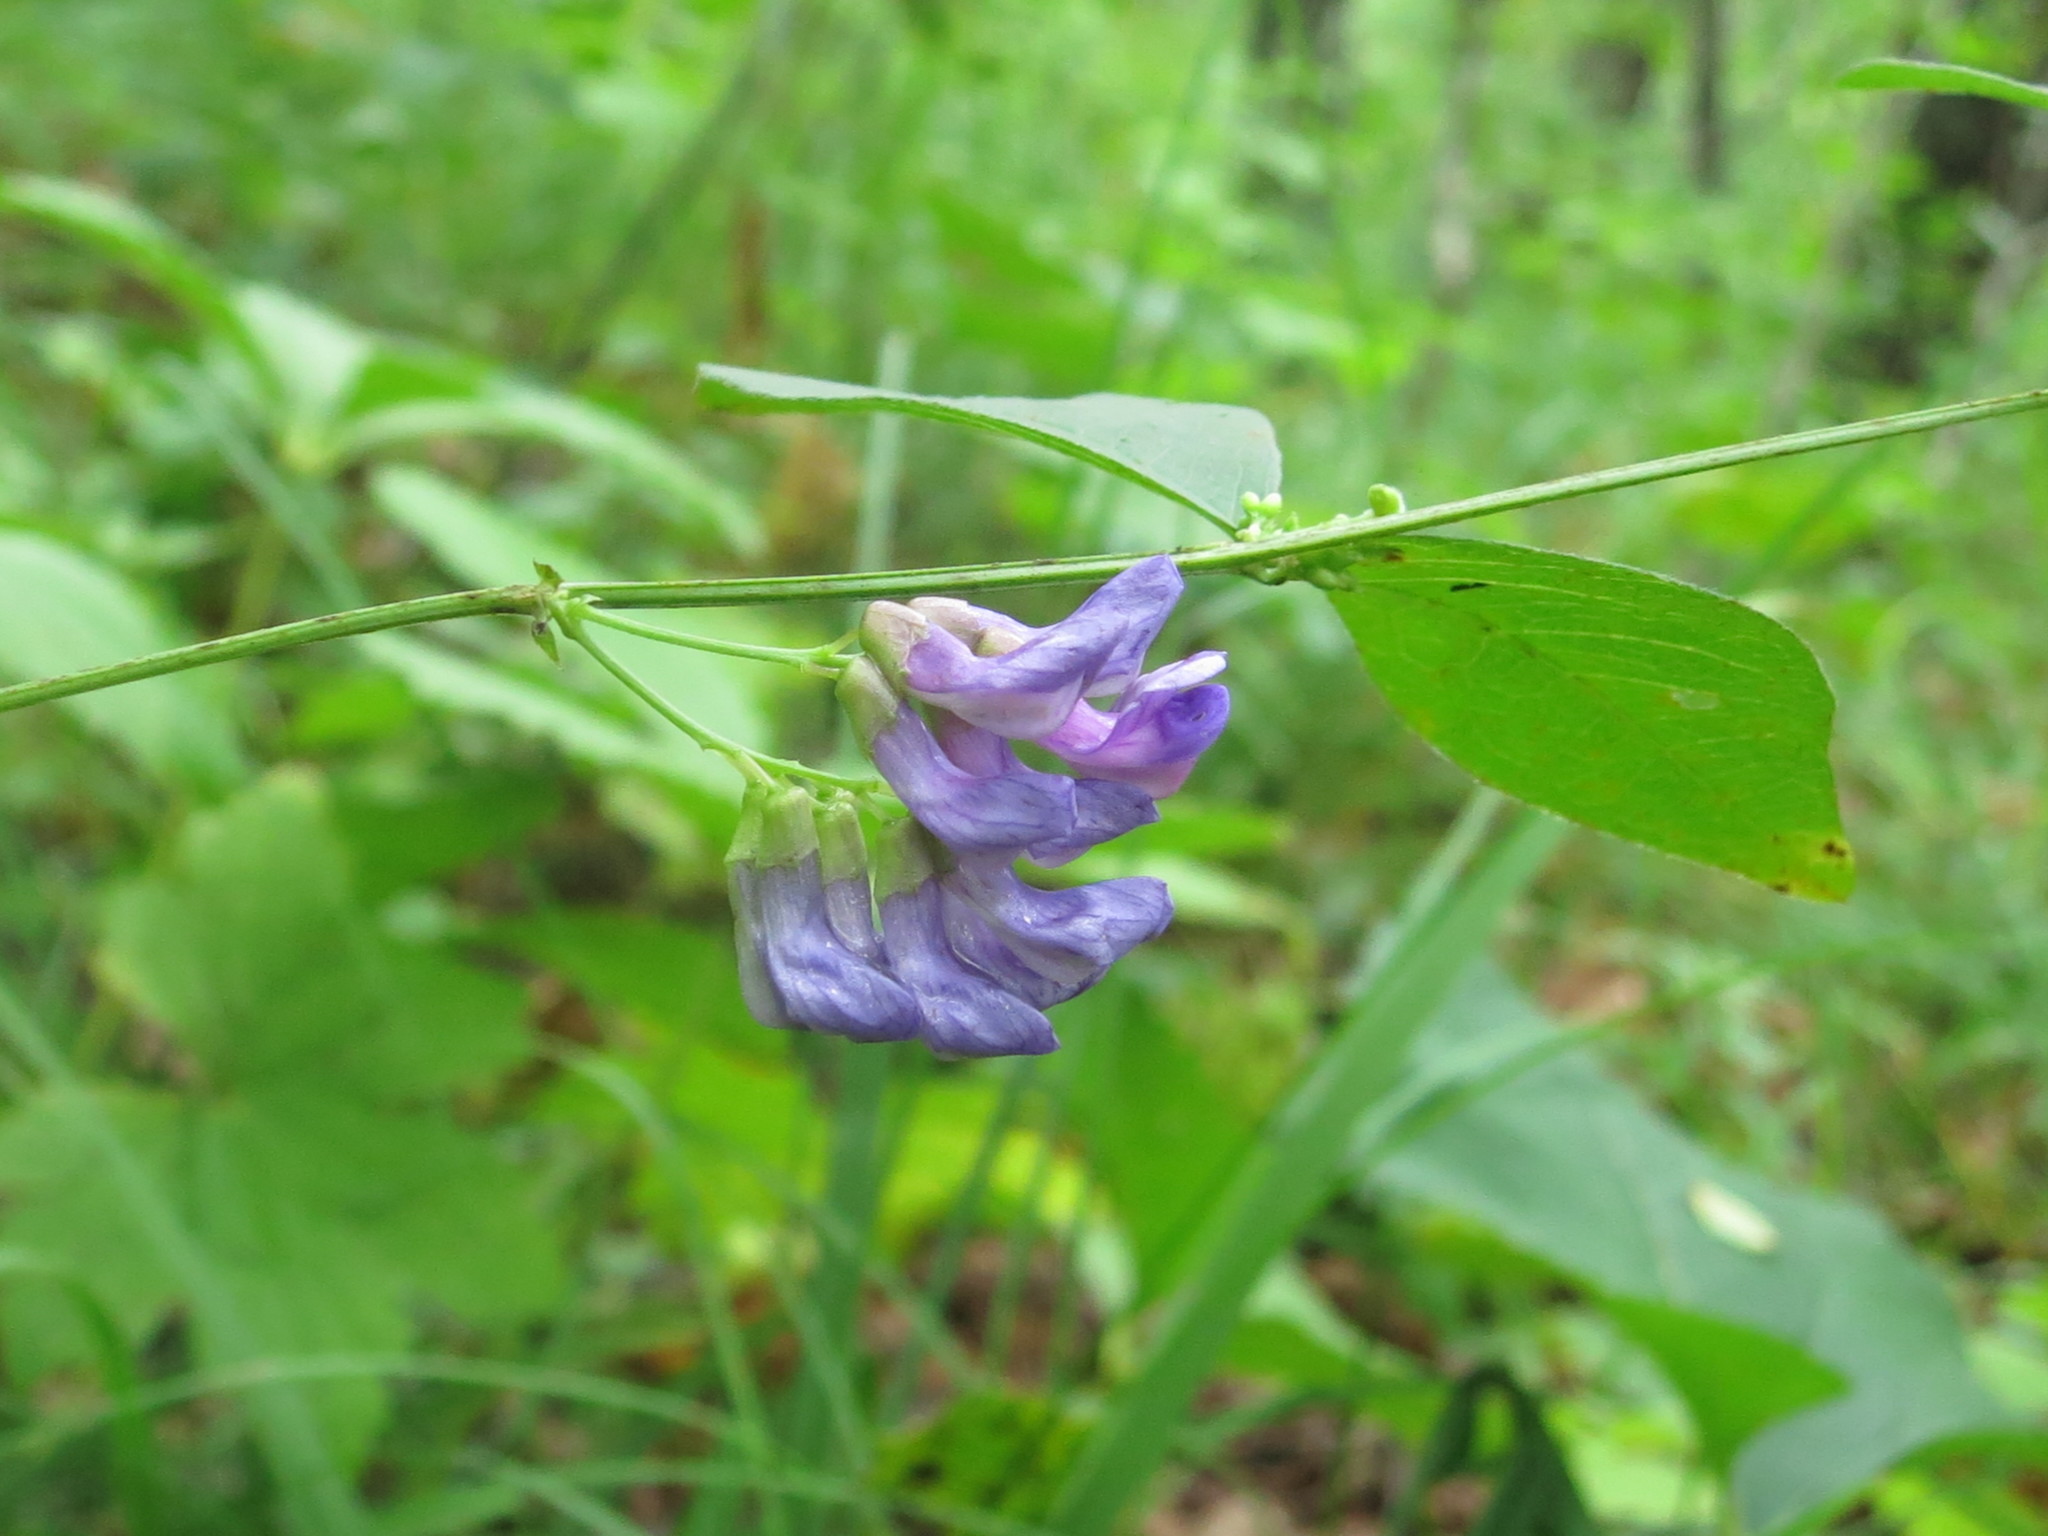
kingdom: Plantae
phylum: Tracheophyta
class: Magnoliopsida
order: Fabales
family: Fabaceae
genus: Vicia
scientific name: Vicia unijuga
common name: Two-leaf vetch
